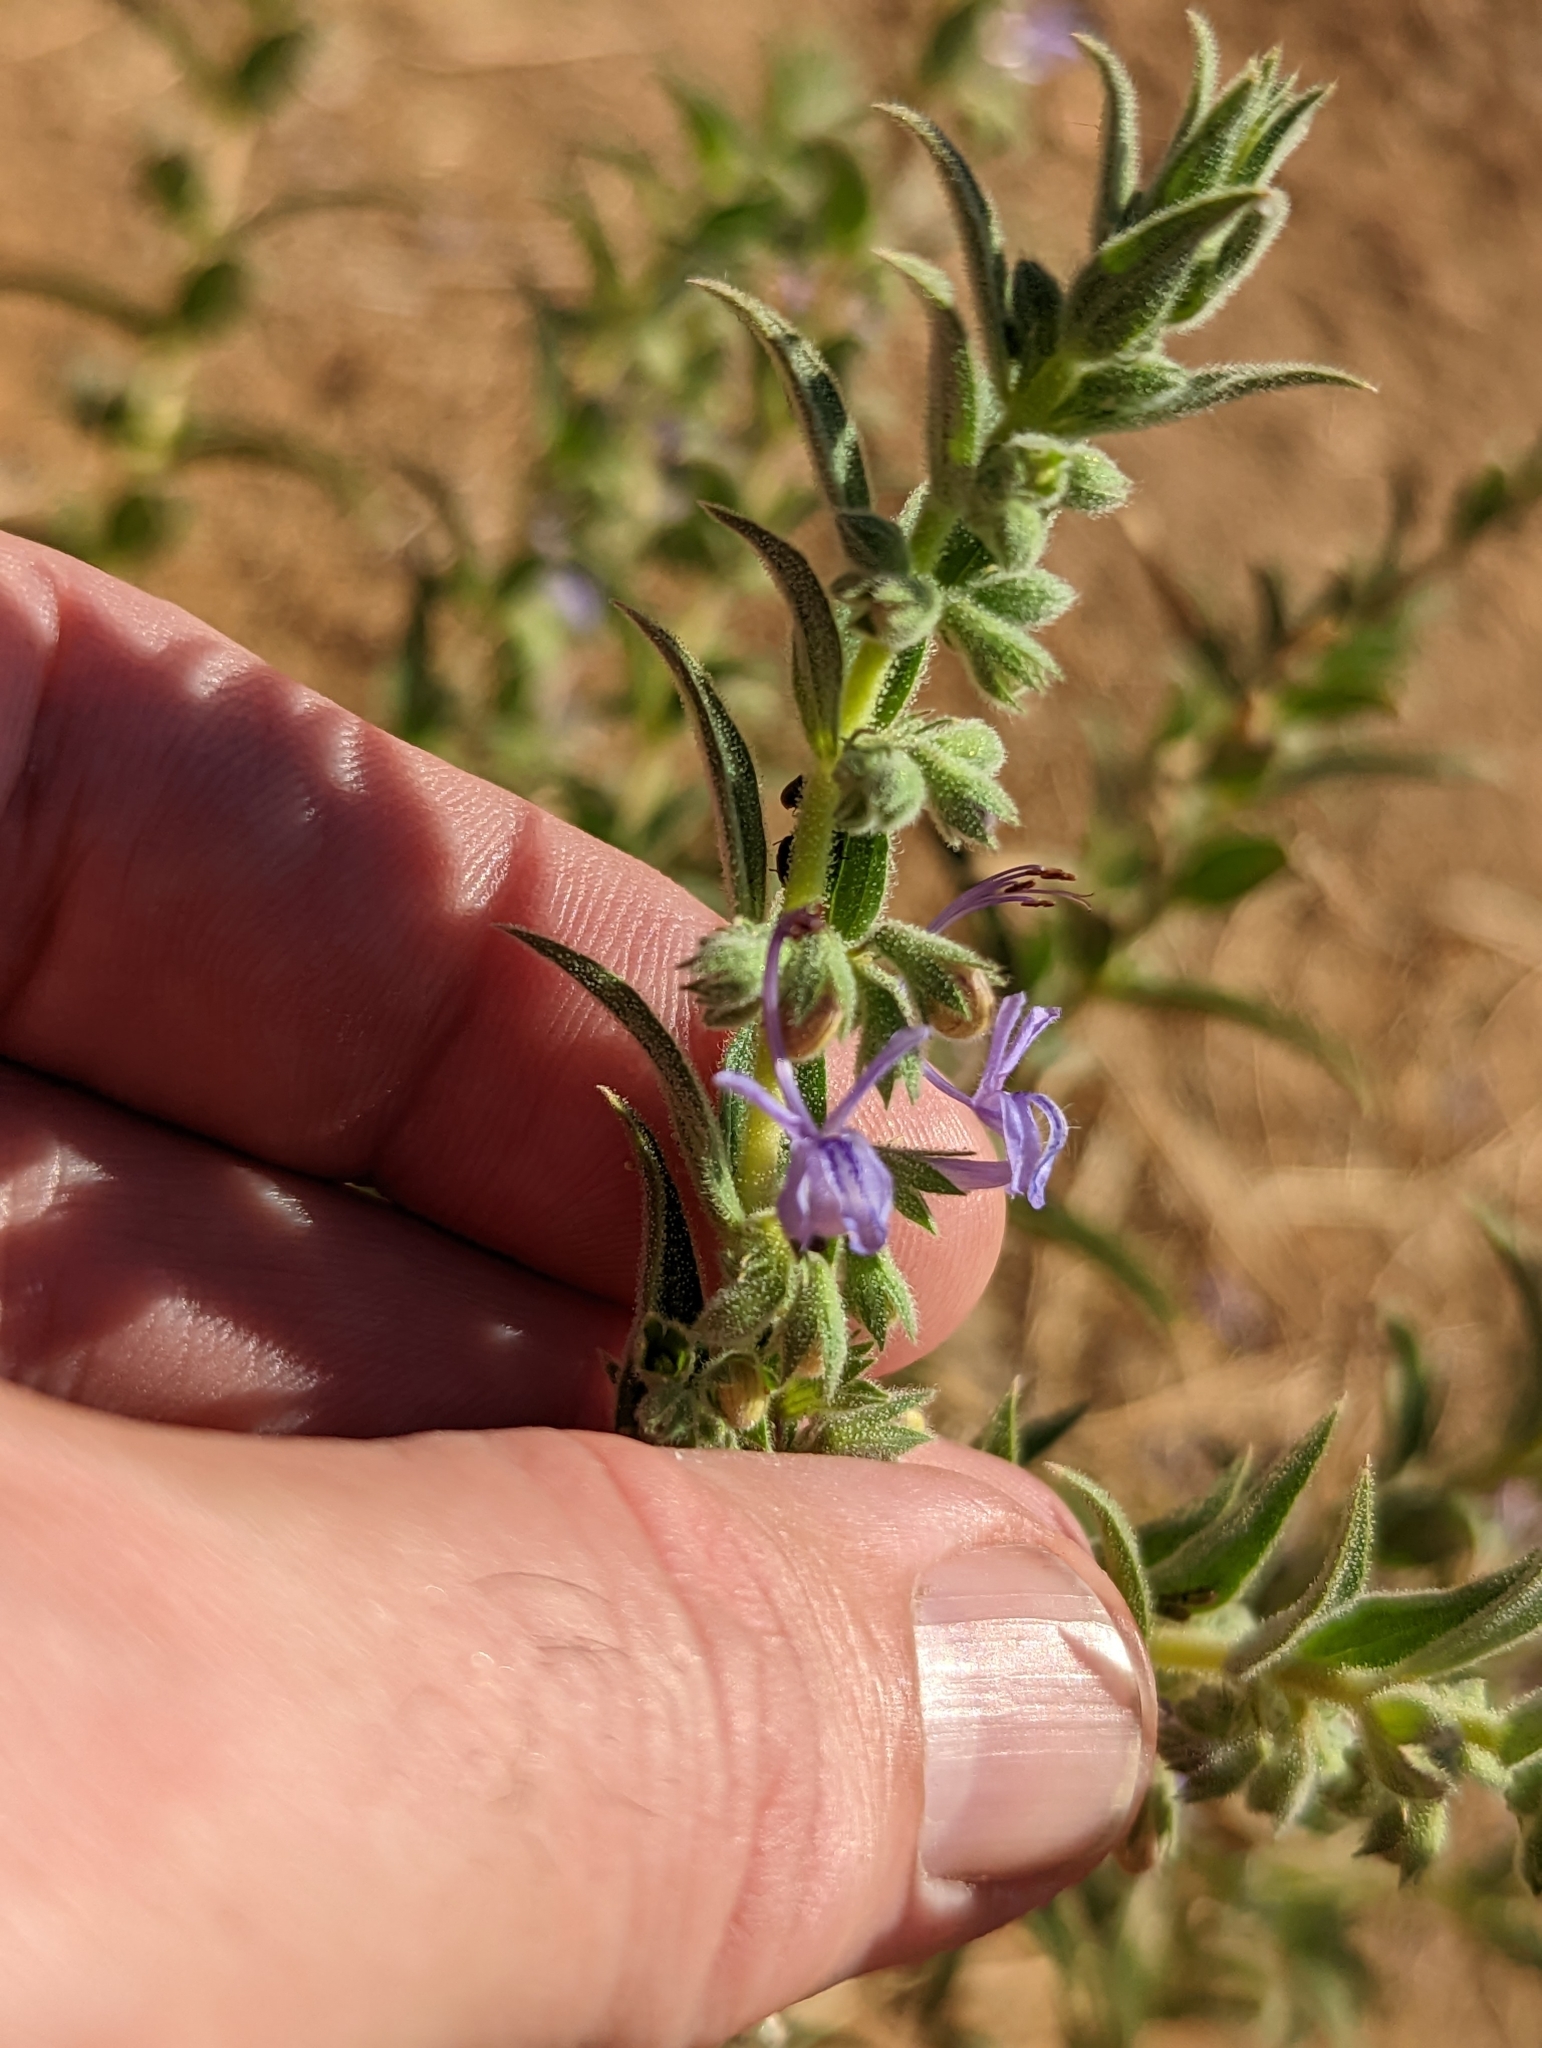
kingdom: Plantae
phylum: Tracheophyta
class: Magnoliopsida
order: Lamiales
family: Lamiaceae
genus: Trichostema
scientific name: Trichostema lanceolatum
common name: Vinegar-weed
